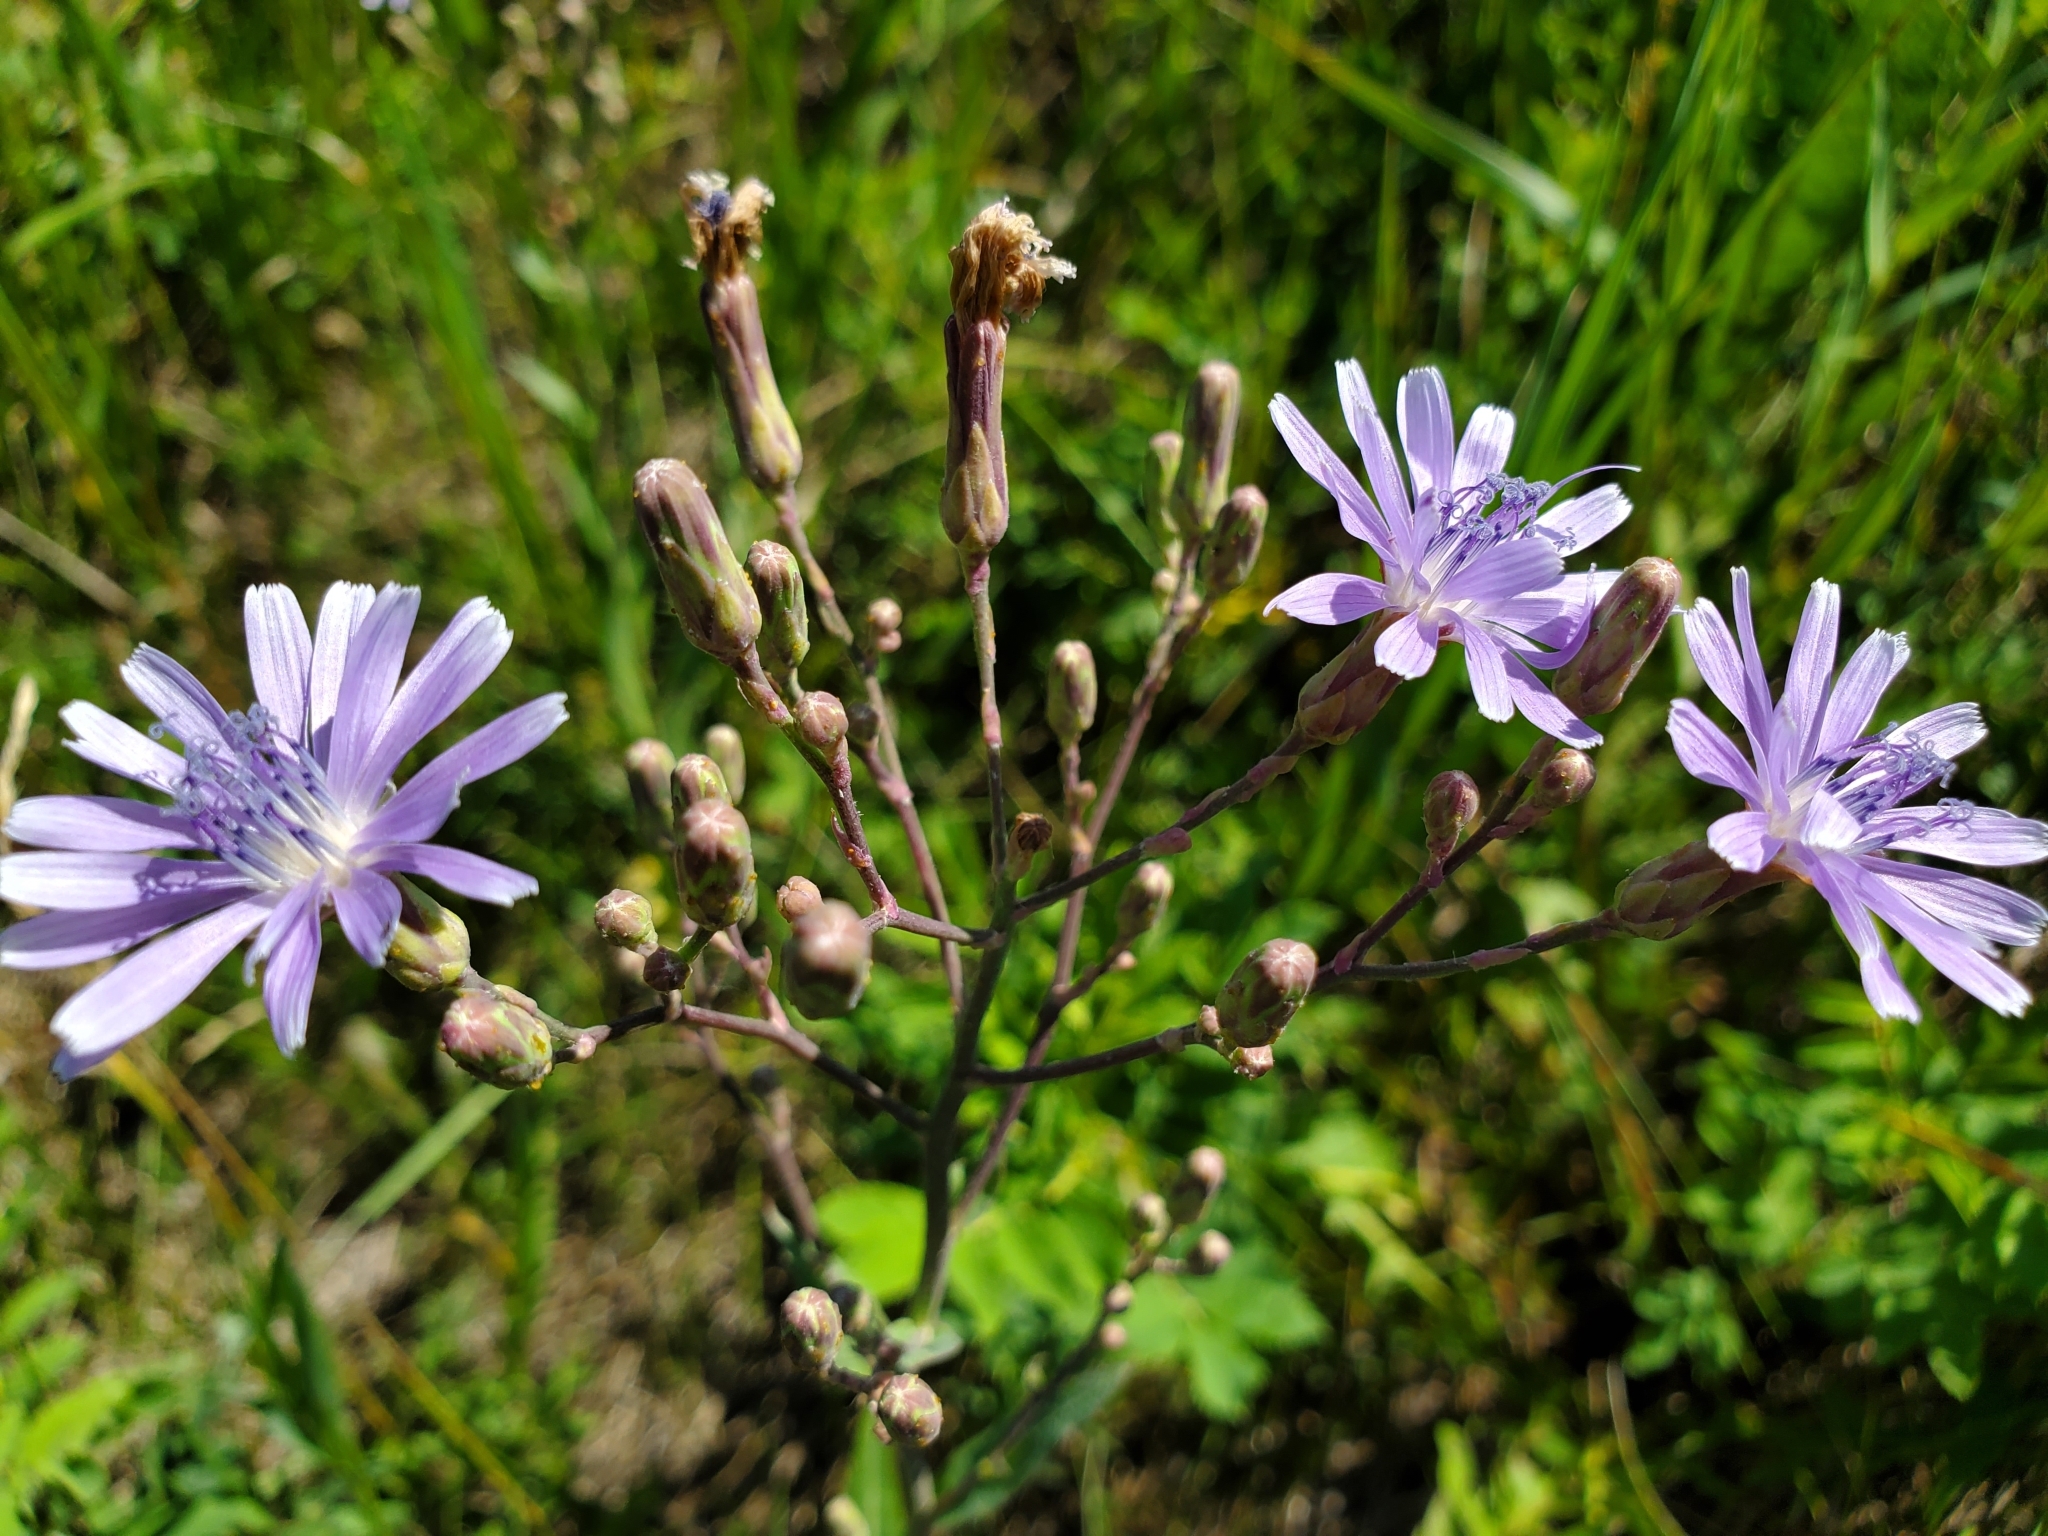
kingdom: Plantae
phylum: Tracheophyta
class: Magnoliopsida
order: Asterales
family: Asteraceae
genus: Lactuca
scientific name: Lactuca pulchella
